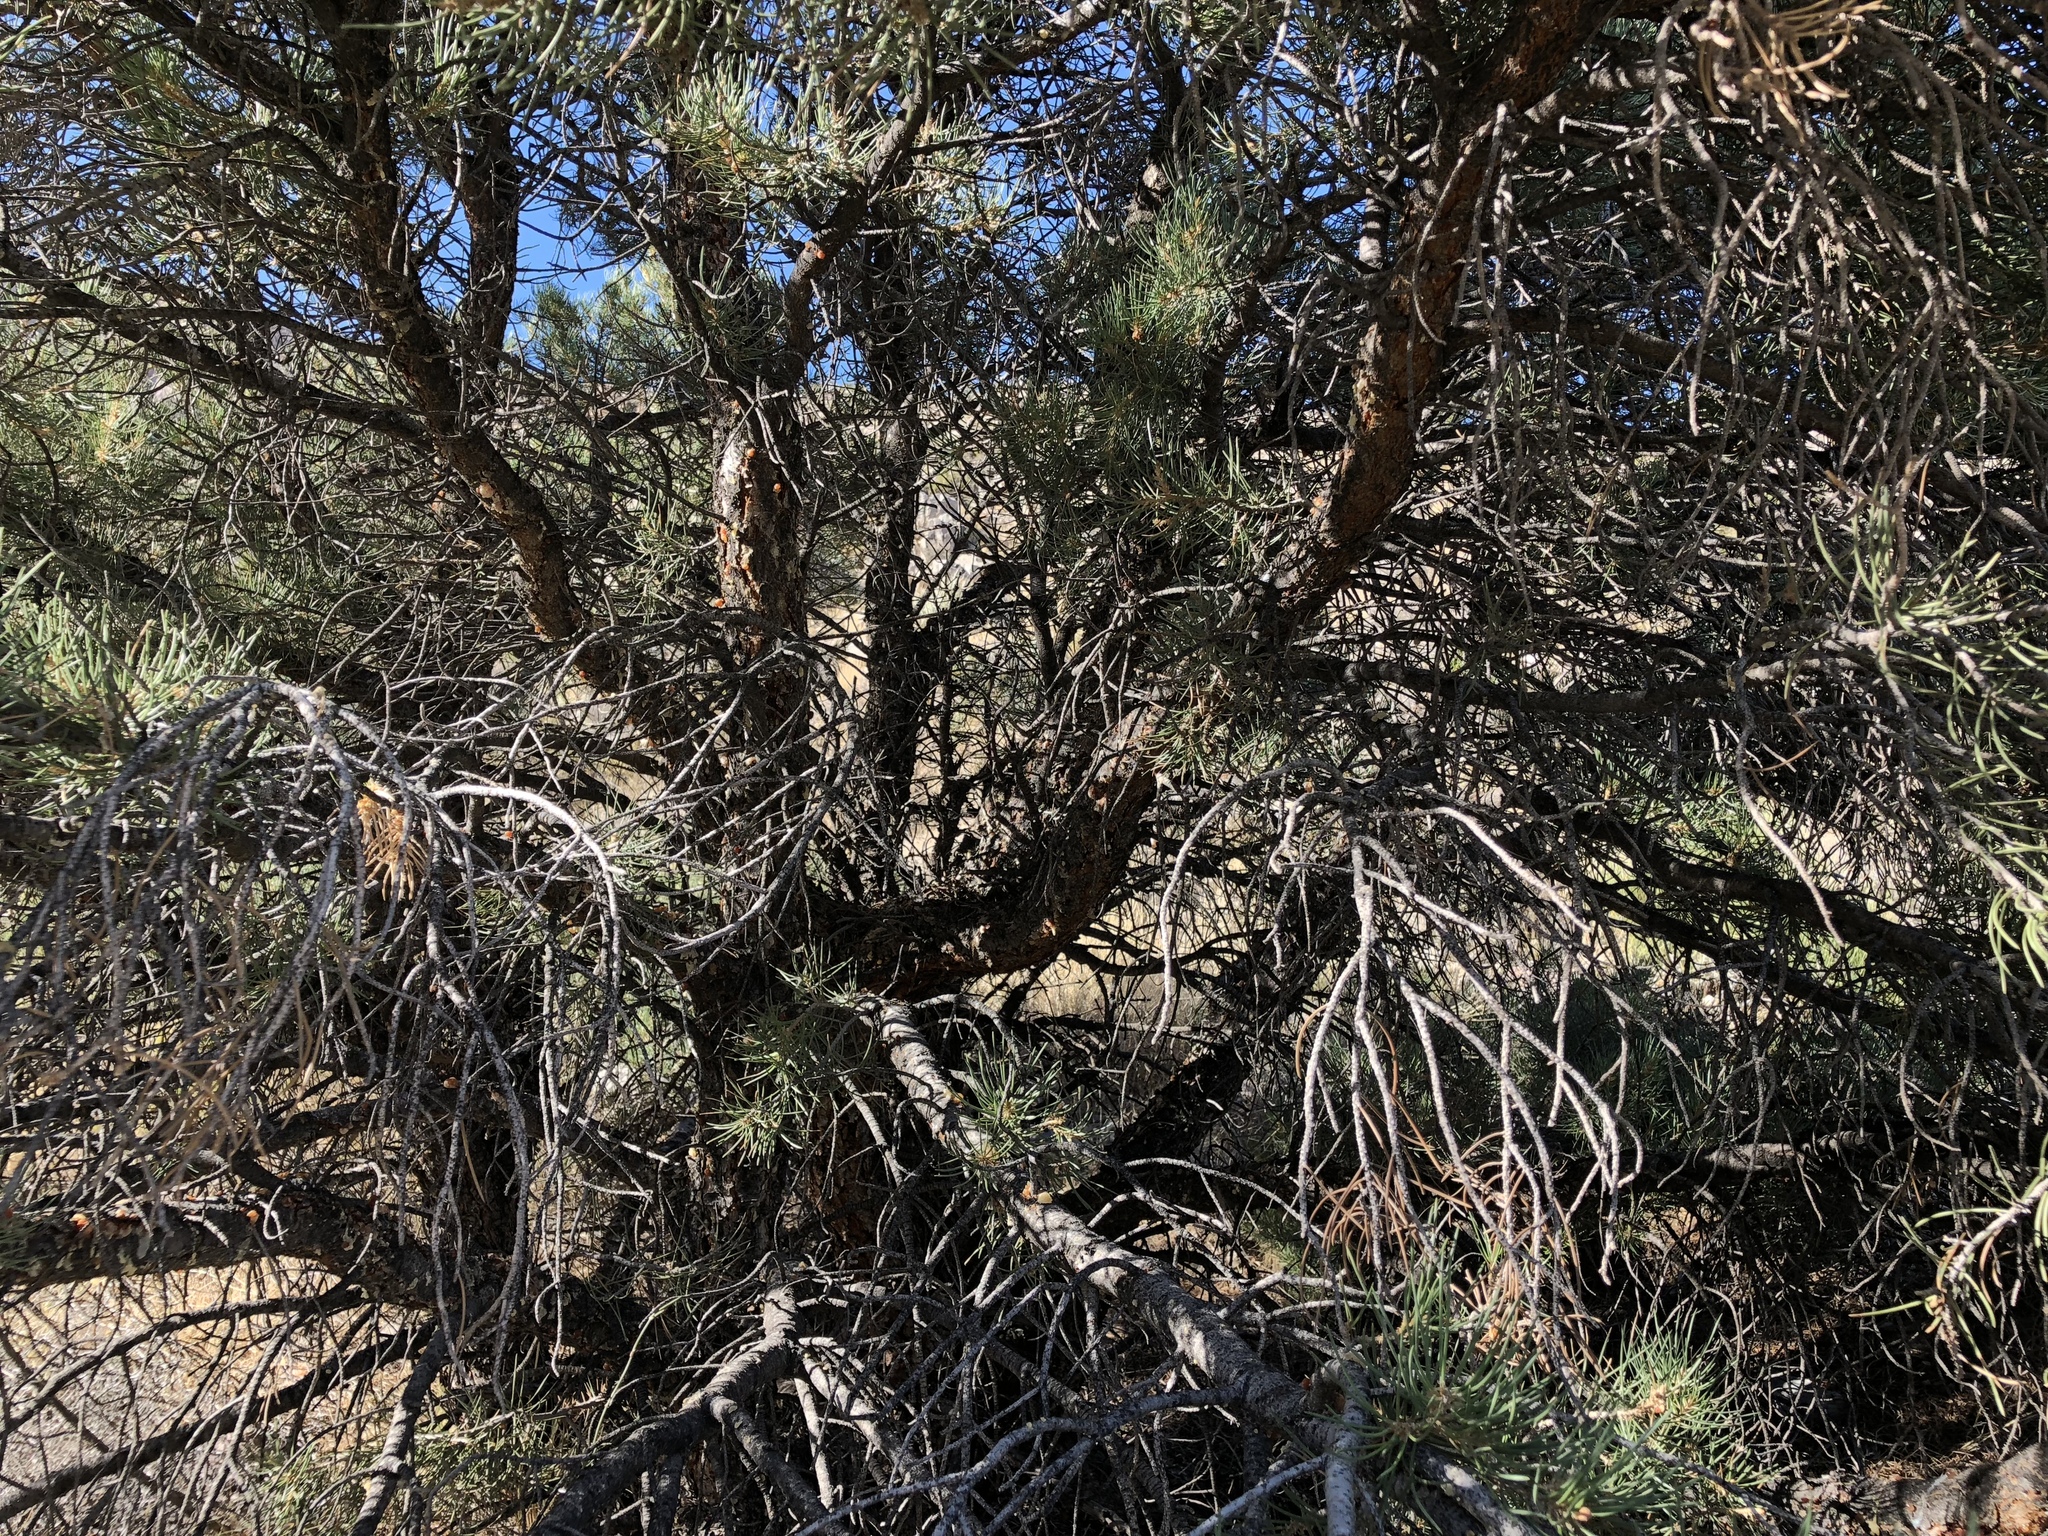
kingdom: Plantae
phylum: Tracheophyta
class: Pinopsida
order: Pinales
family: Pinaceae
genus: Pinus
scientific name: Pinus monophylla
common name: One-leaved nut pine
